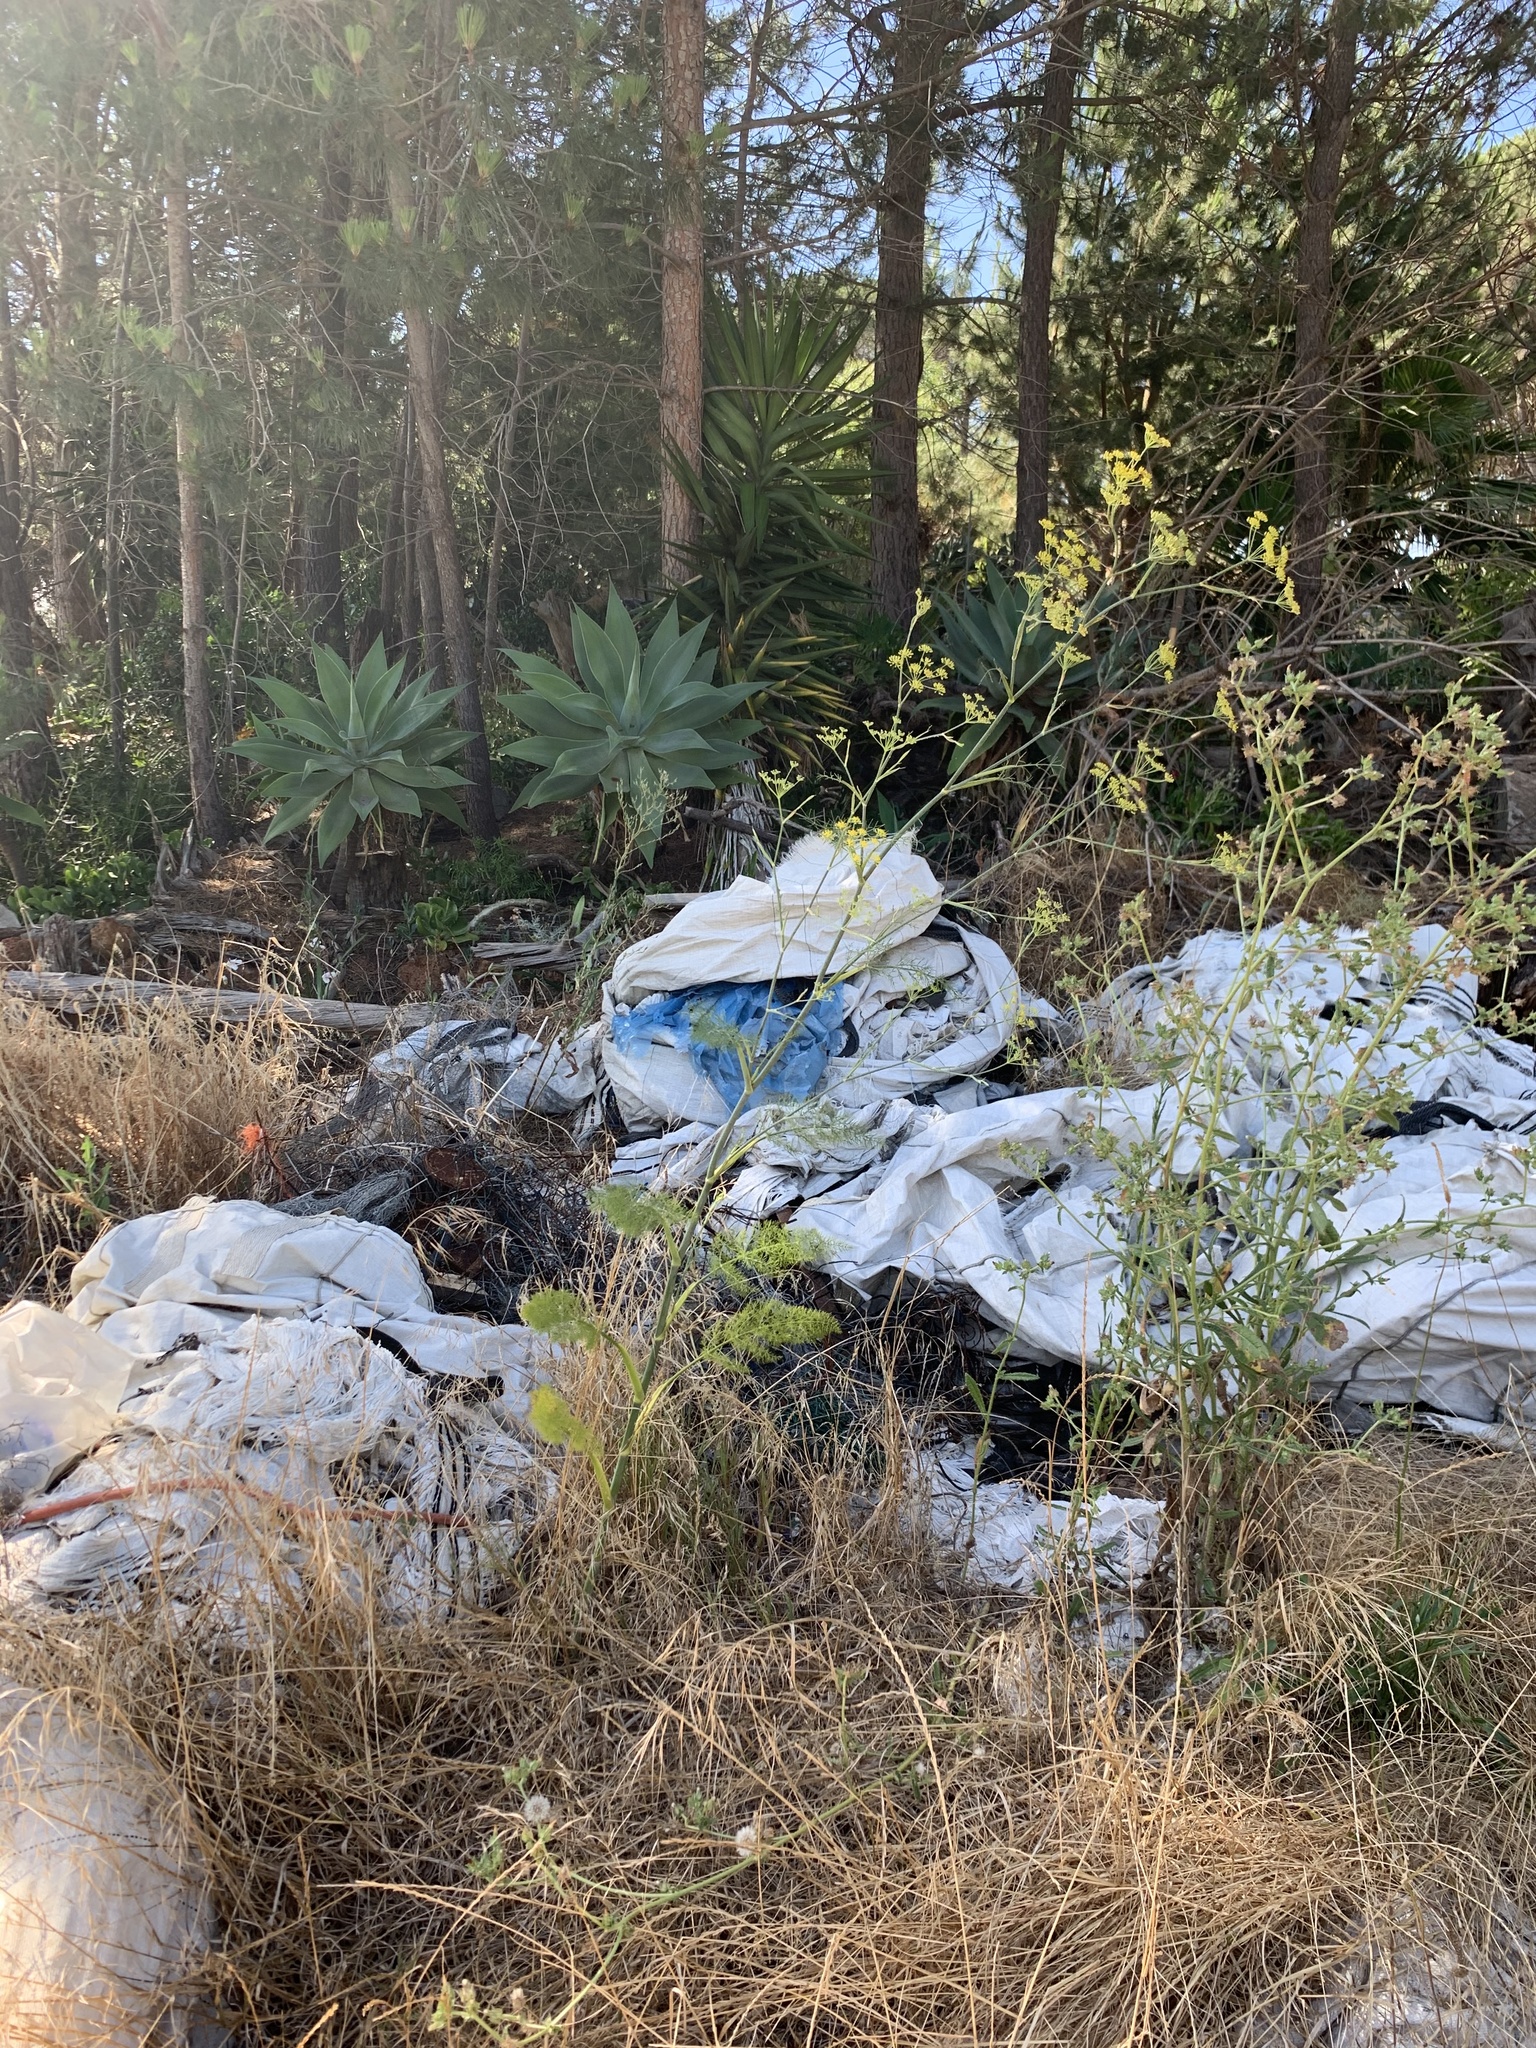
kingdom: Plantae
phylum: Tracheophyta
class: Magnoliopsida
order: Apiales
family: Apiaceae
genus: Foeniculum
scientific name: Foeniculum vulgare
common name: Fennel
